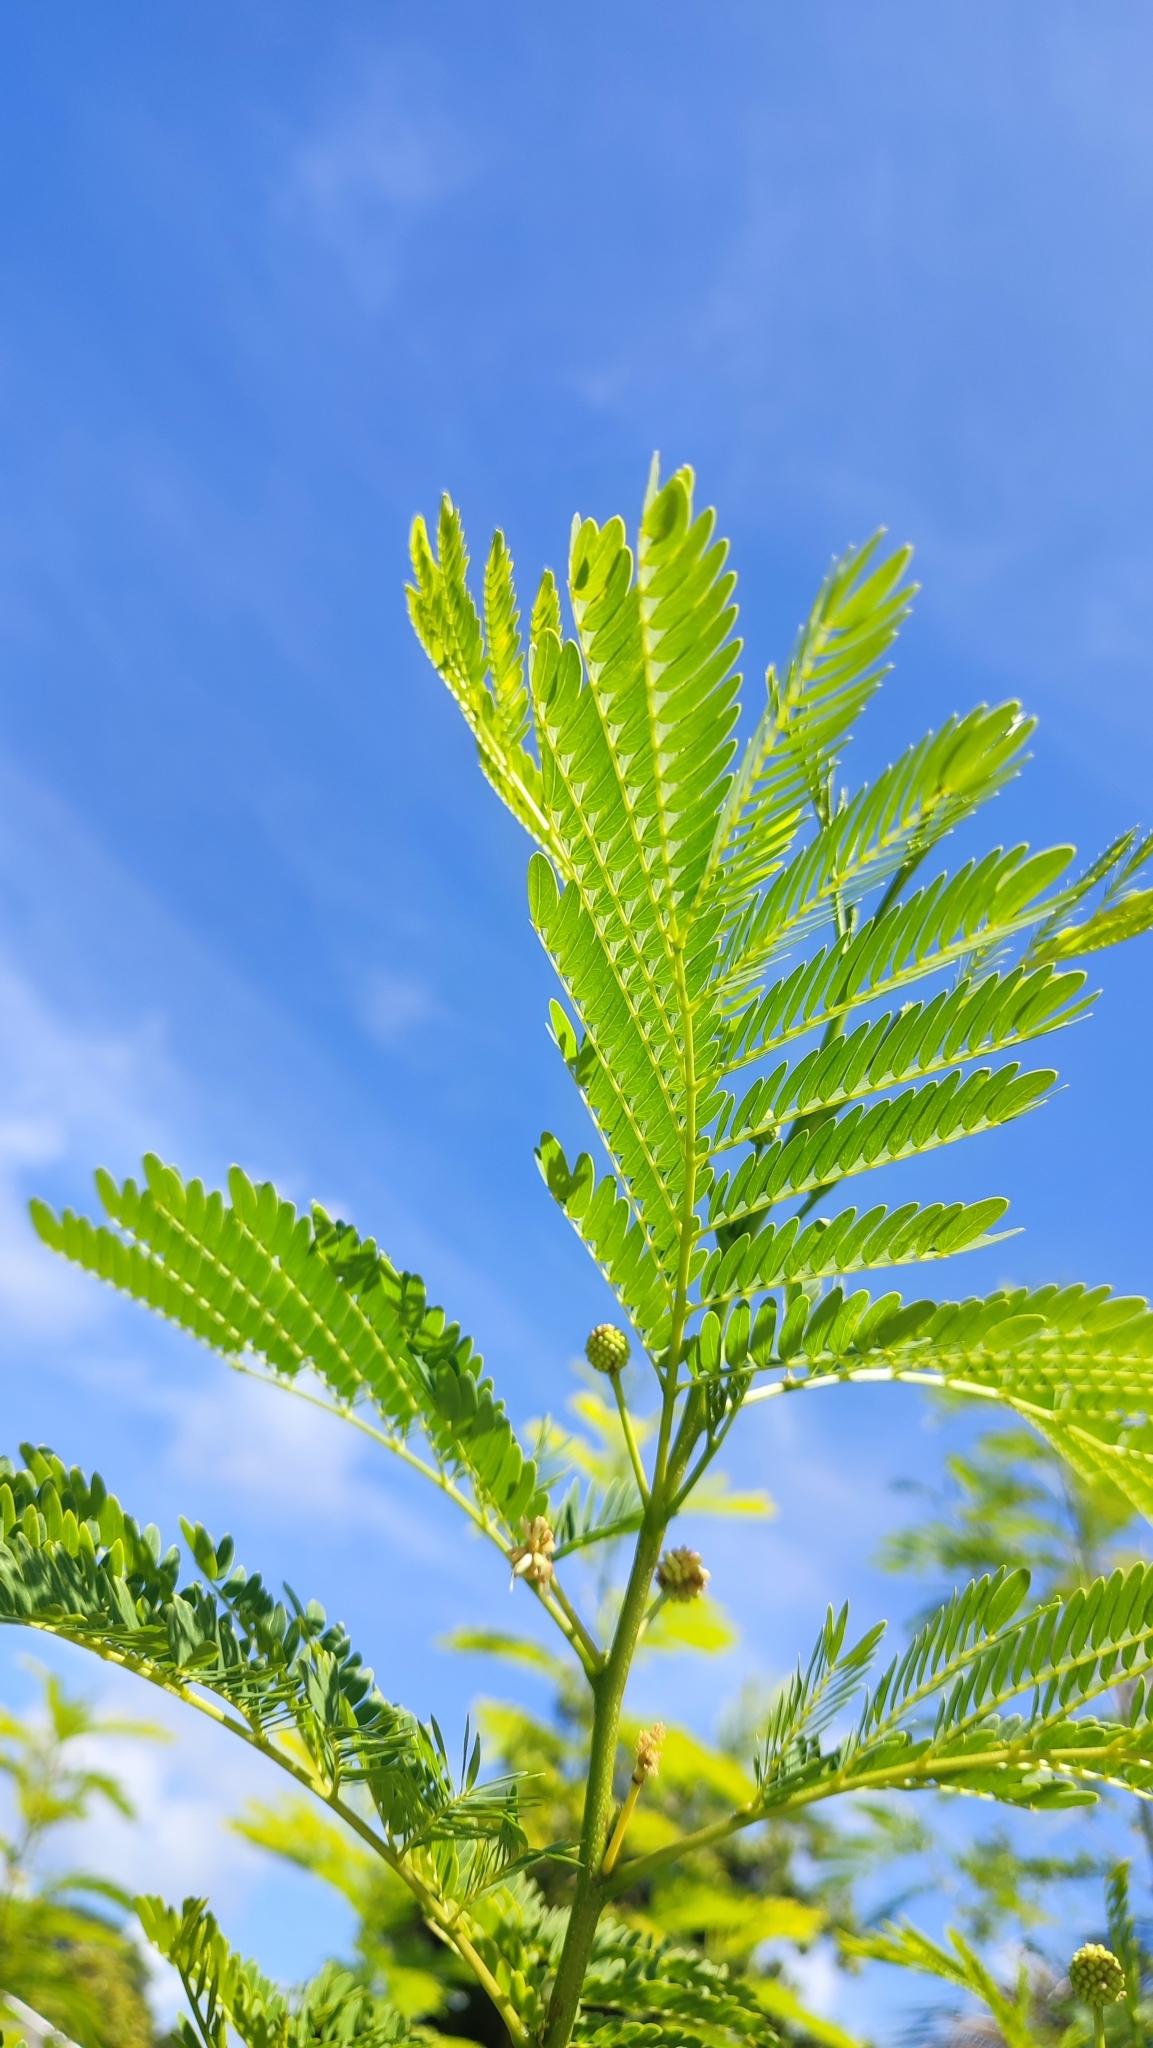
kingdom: Plantae
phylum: Tracheophyta
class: Magnoliopsida
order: Fabales
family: Fabaceae
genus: Leucaena
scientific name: Leucaena leucocephala
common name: White leadtree
